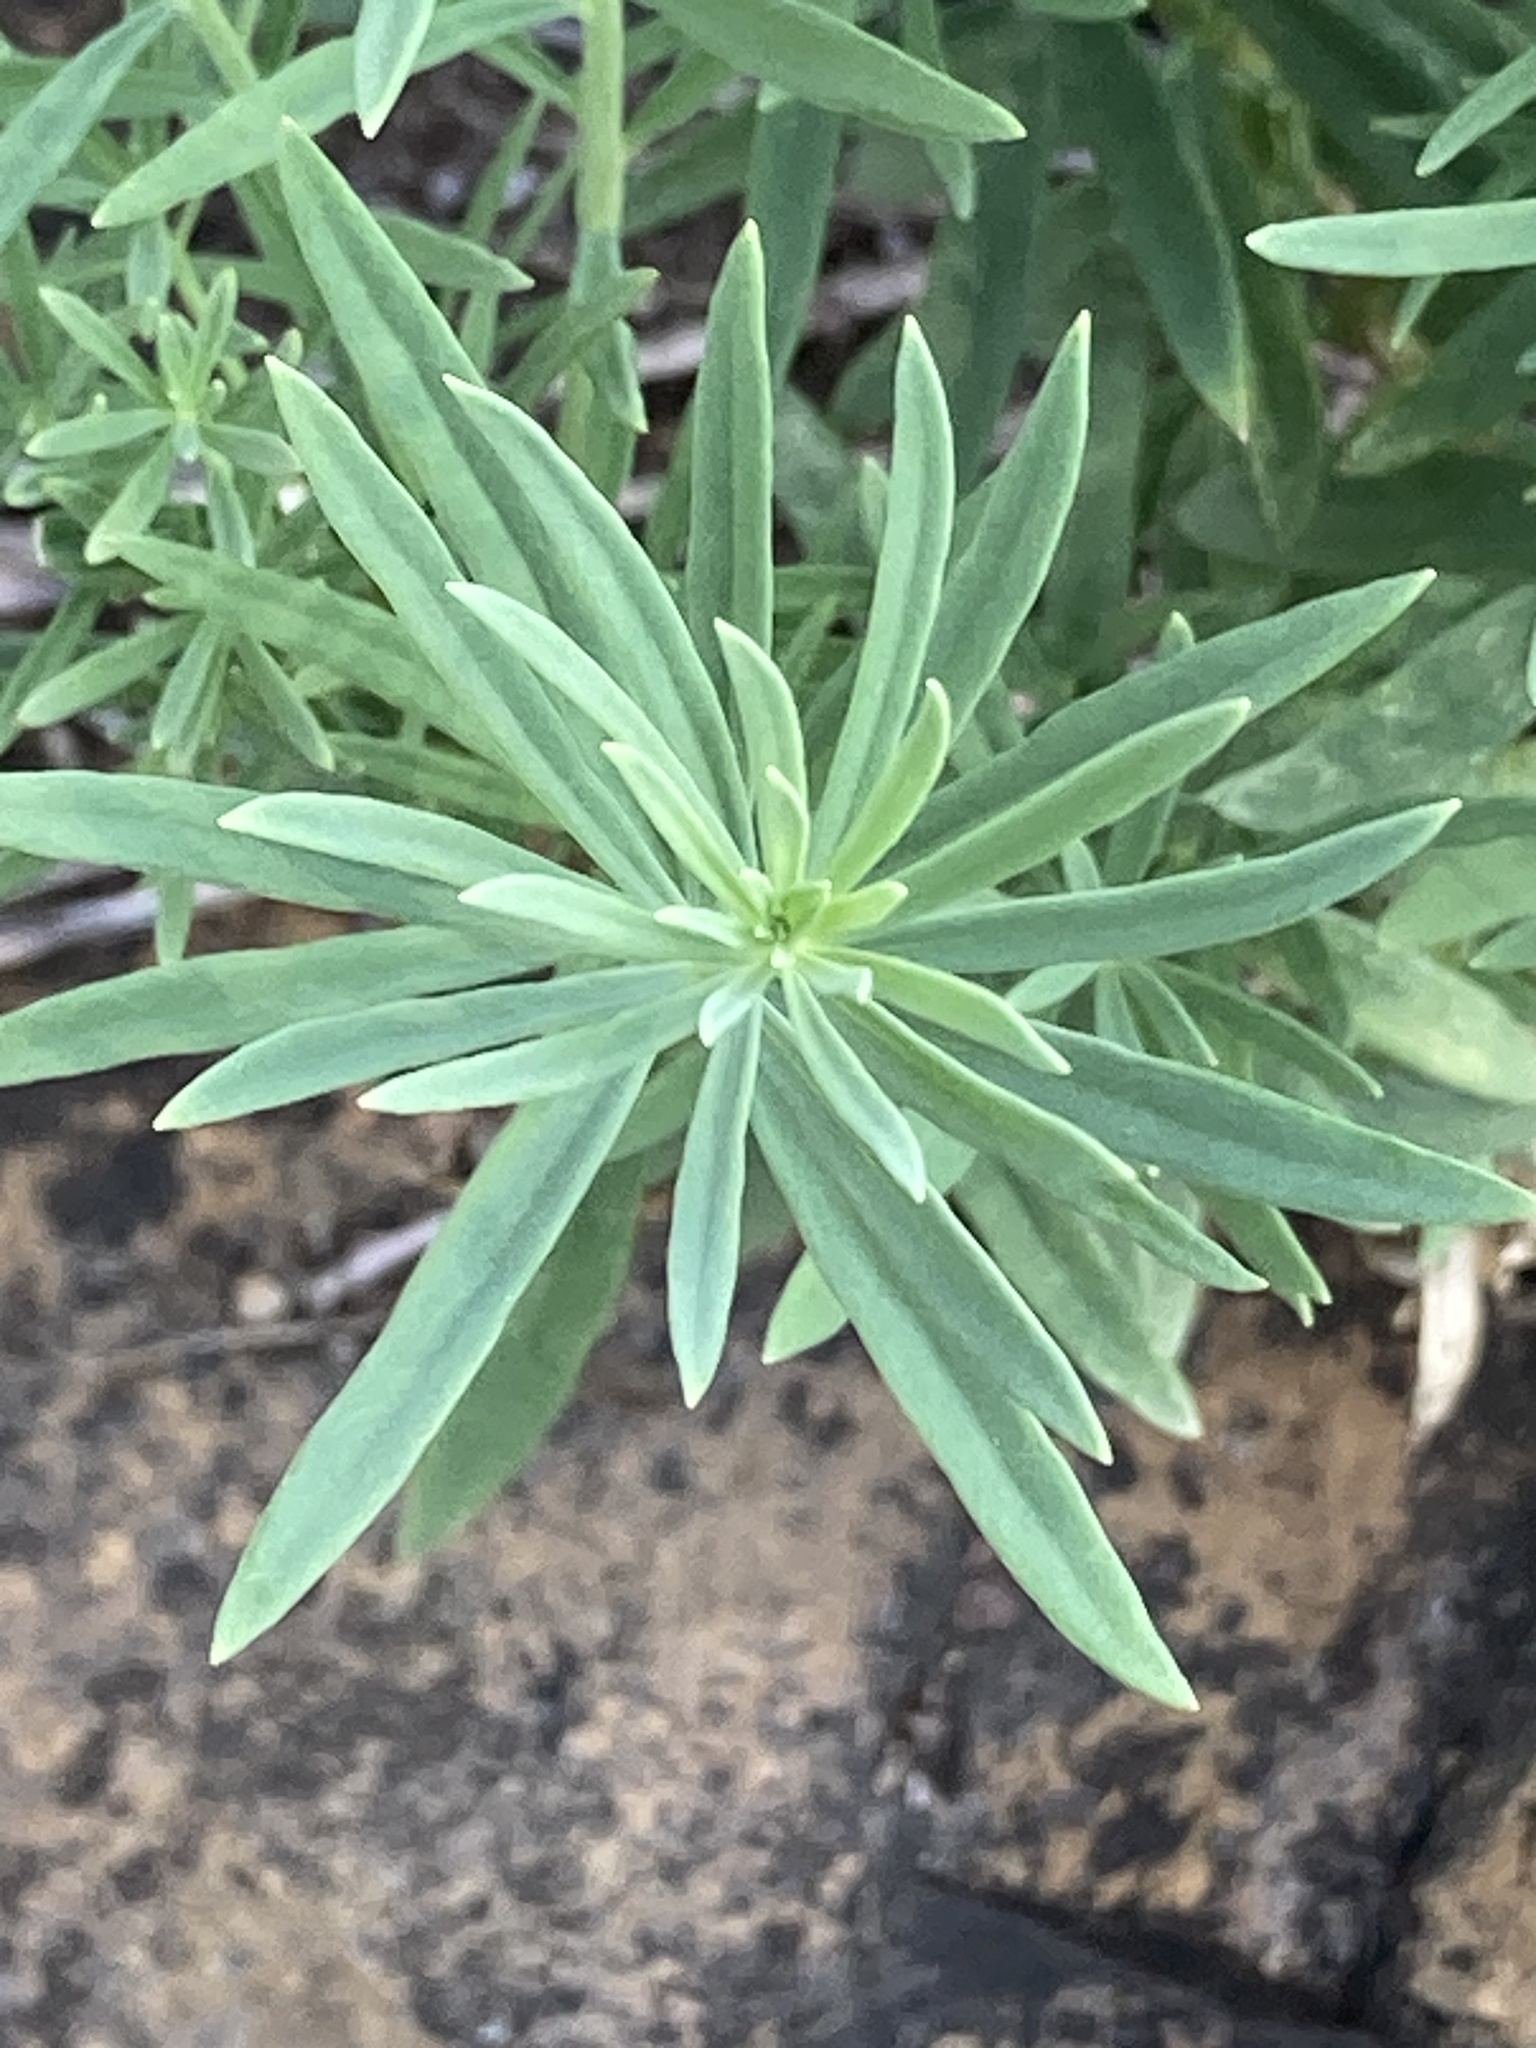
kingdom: Plantae
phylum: Tracheophyta
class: Magnoliopsida
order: Lamiales
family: Plantaginaceae
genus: Linaria
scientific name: Linaria vulgaris
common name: Butter and eggs
